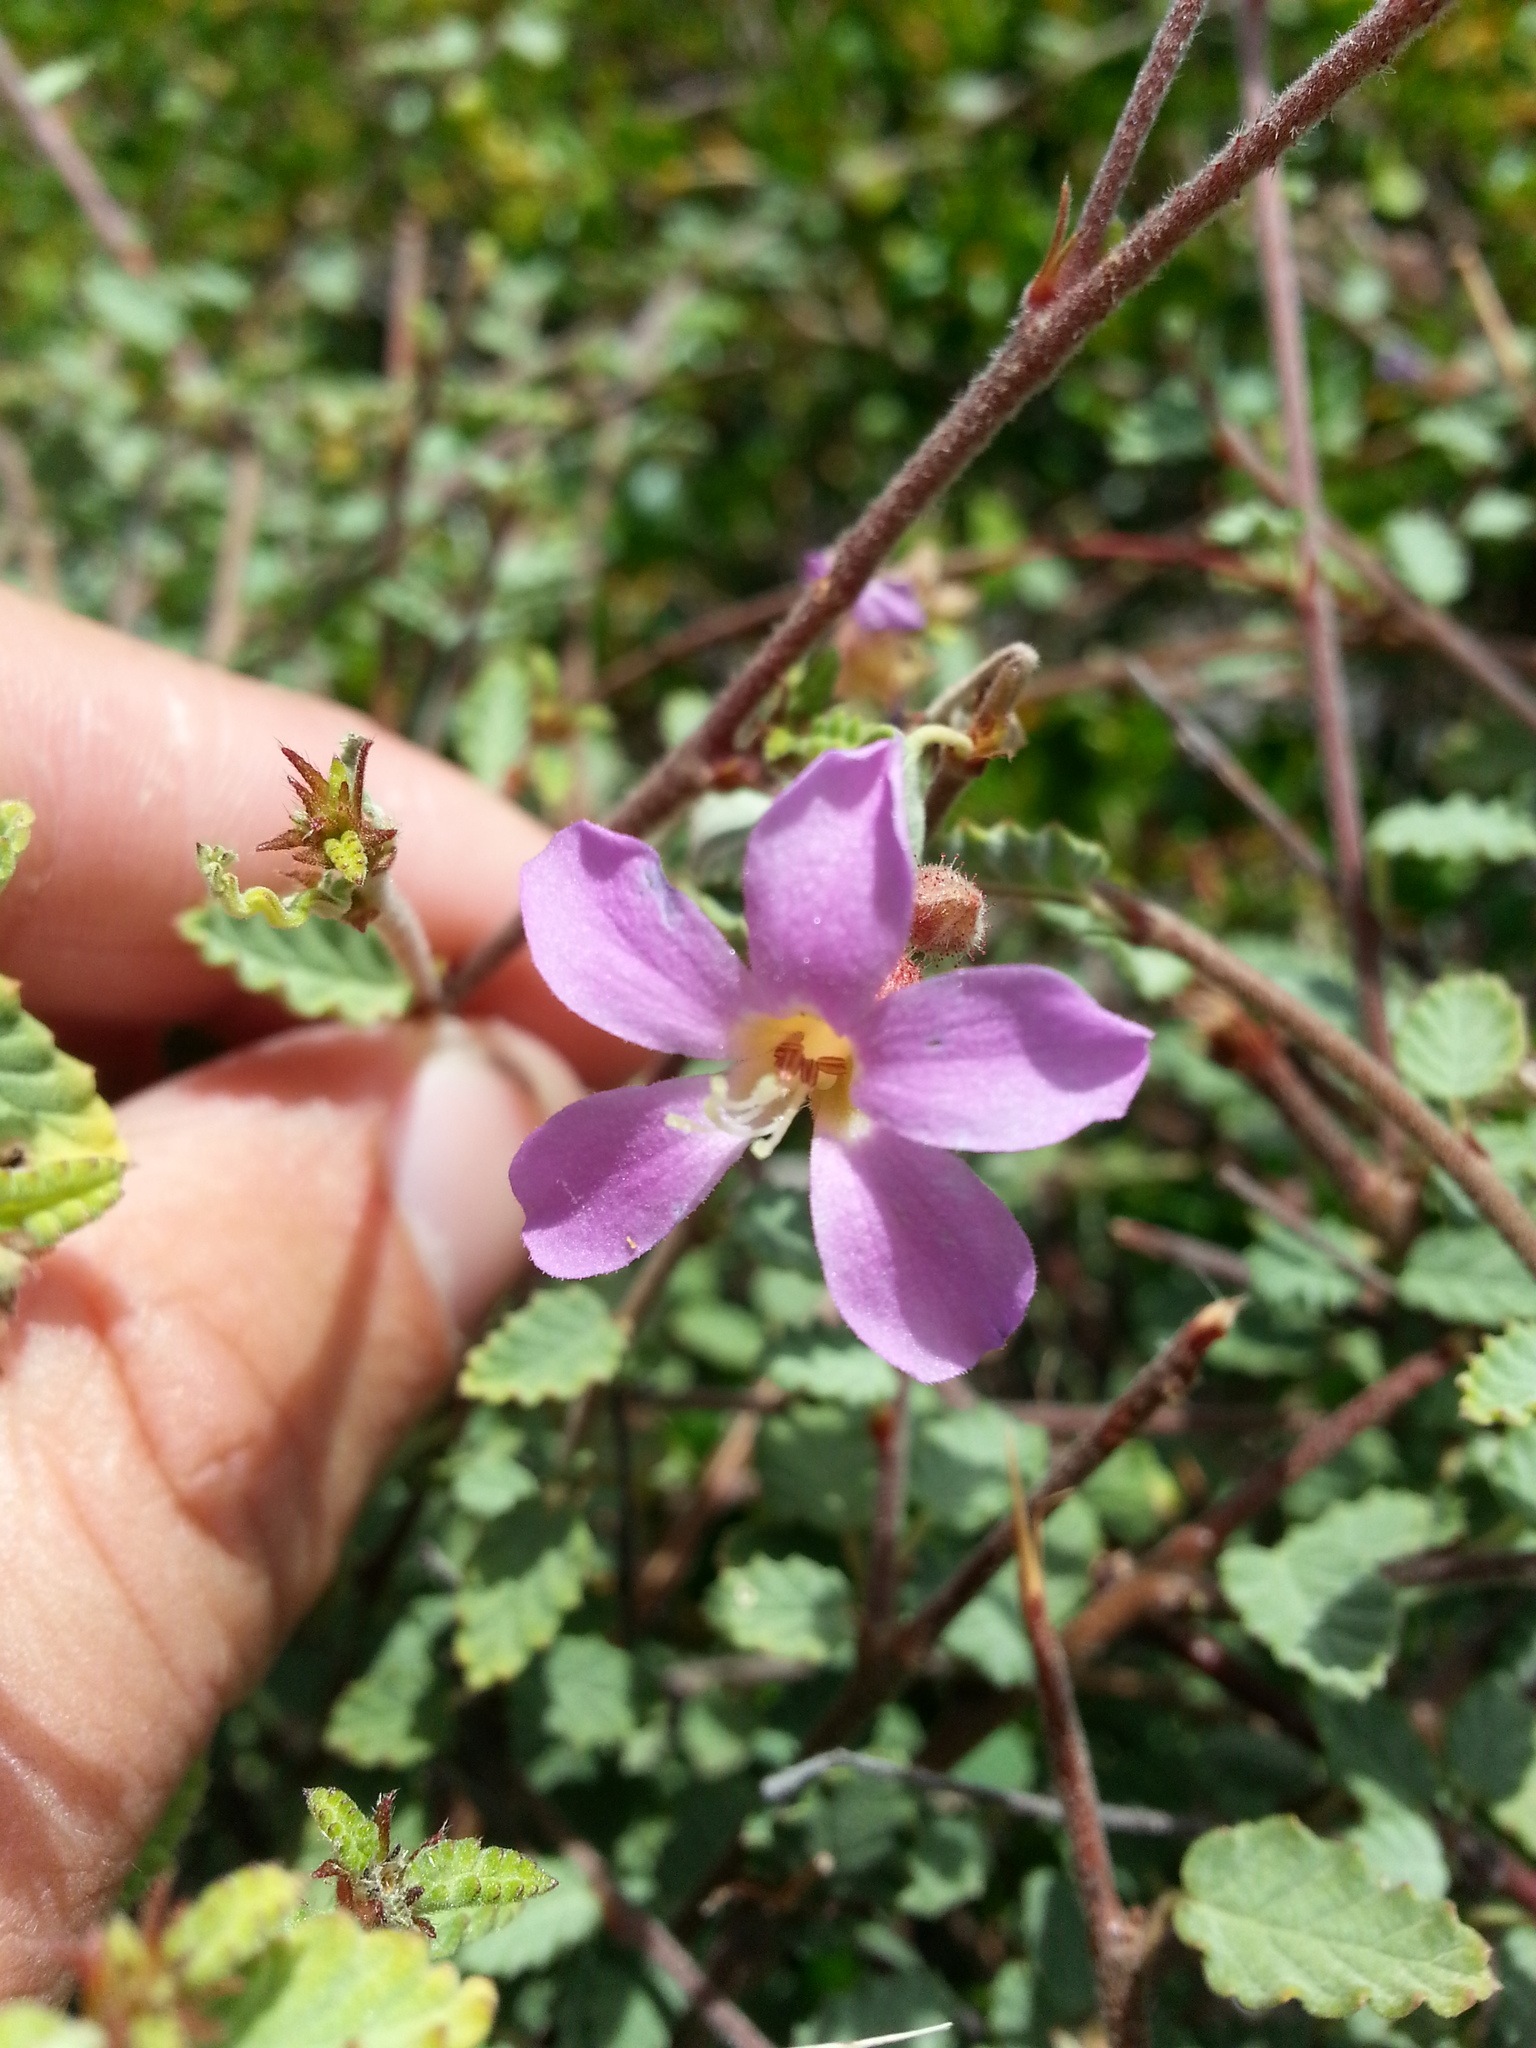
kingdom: Plantae
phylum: Tracheophyta
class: Magnoliopsida
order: Malvales
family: Malvaceae
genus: Melochia
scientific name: Melochia tomentosa
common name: Black torch
